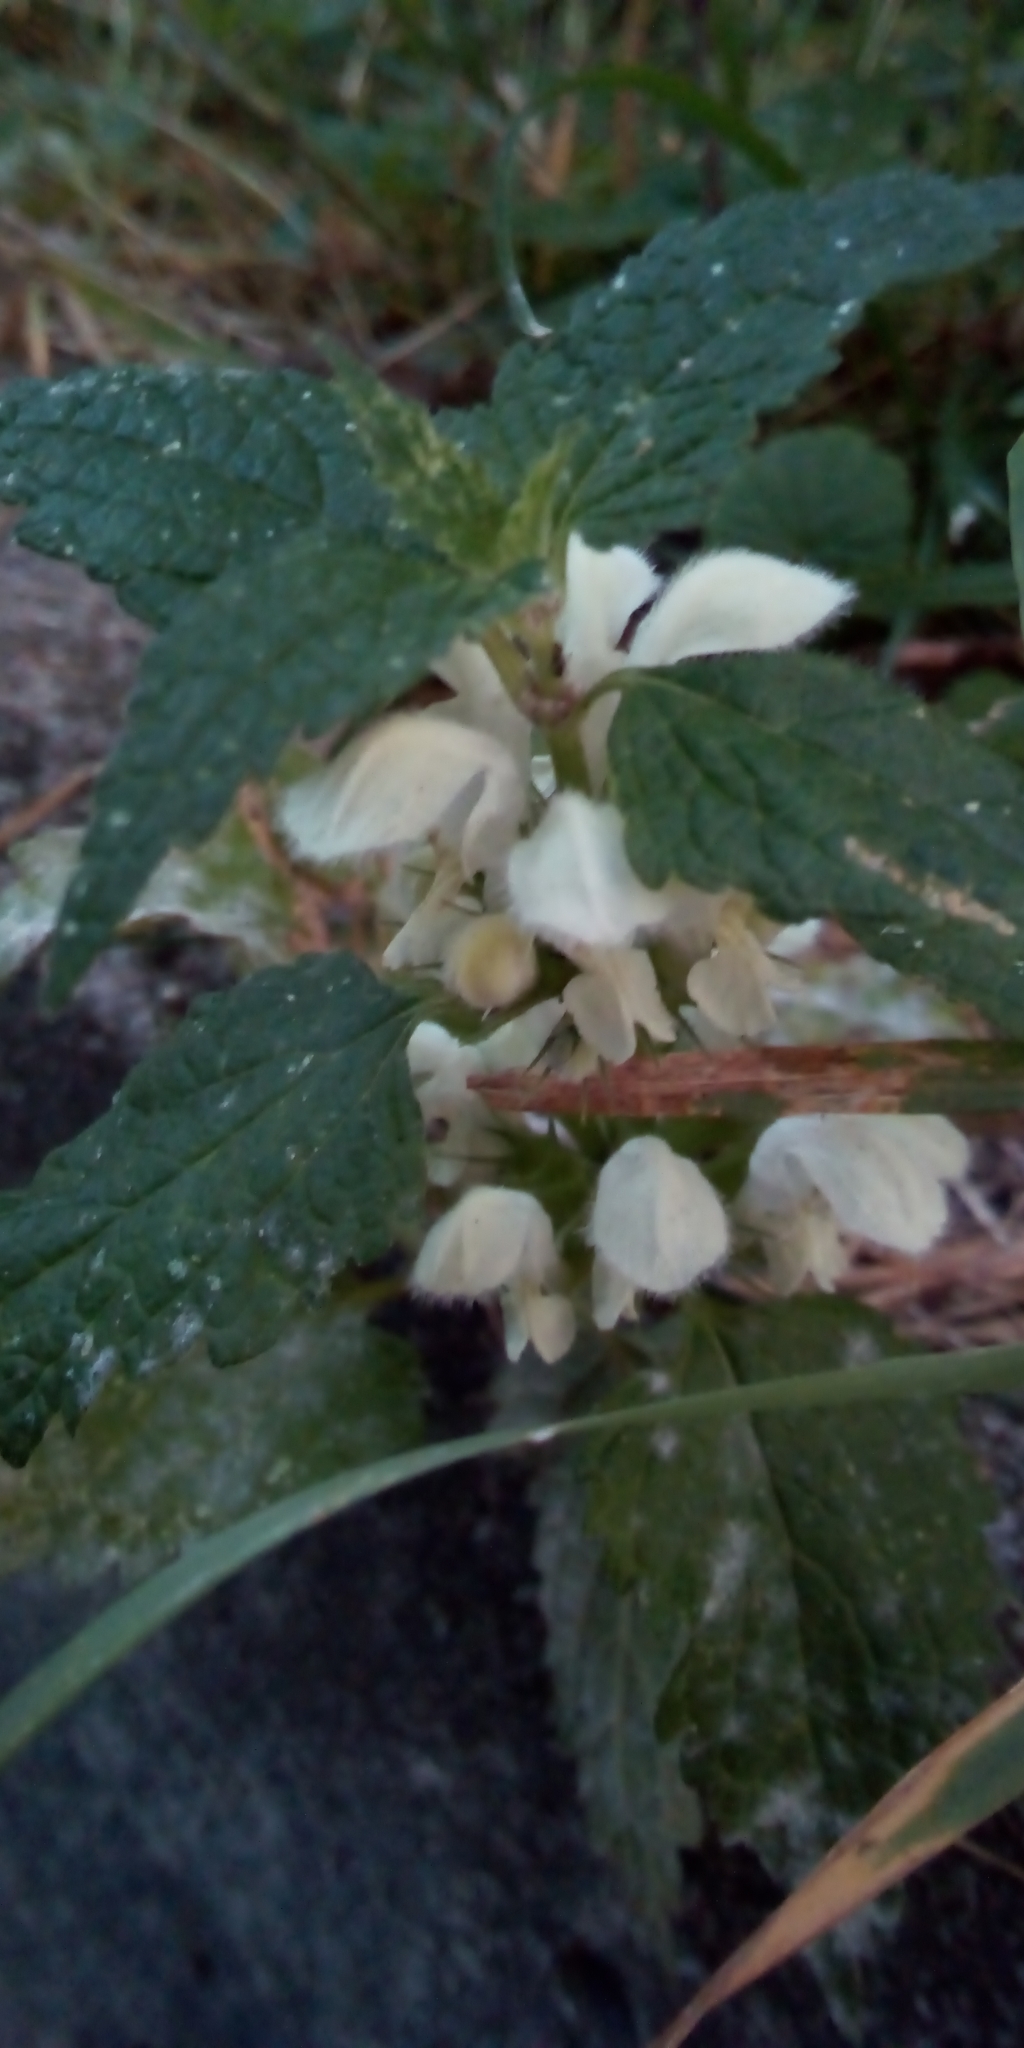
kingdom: Plantae
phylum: Tracheophyta
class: Magnoliopsida
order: Lamiales
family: Lamiaceae
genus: Lamium
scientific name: Lamium album
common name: White dead-nettle
